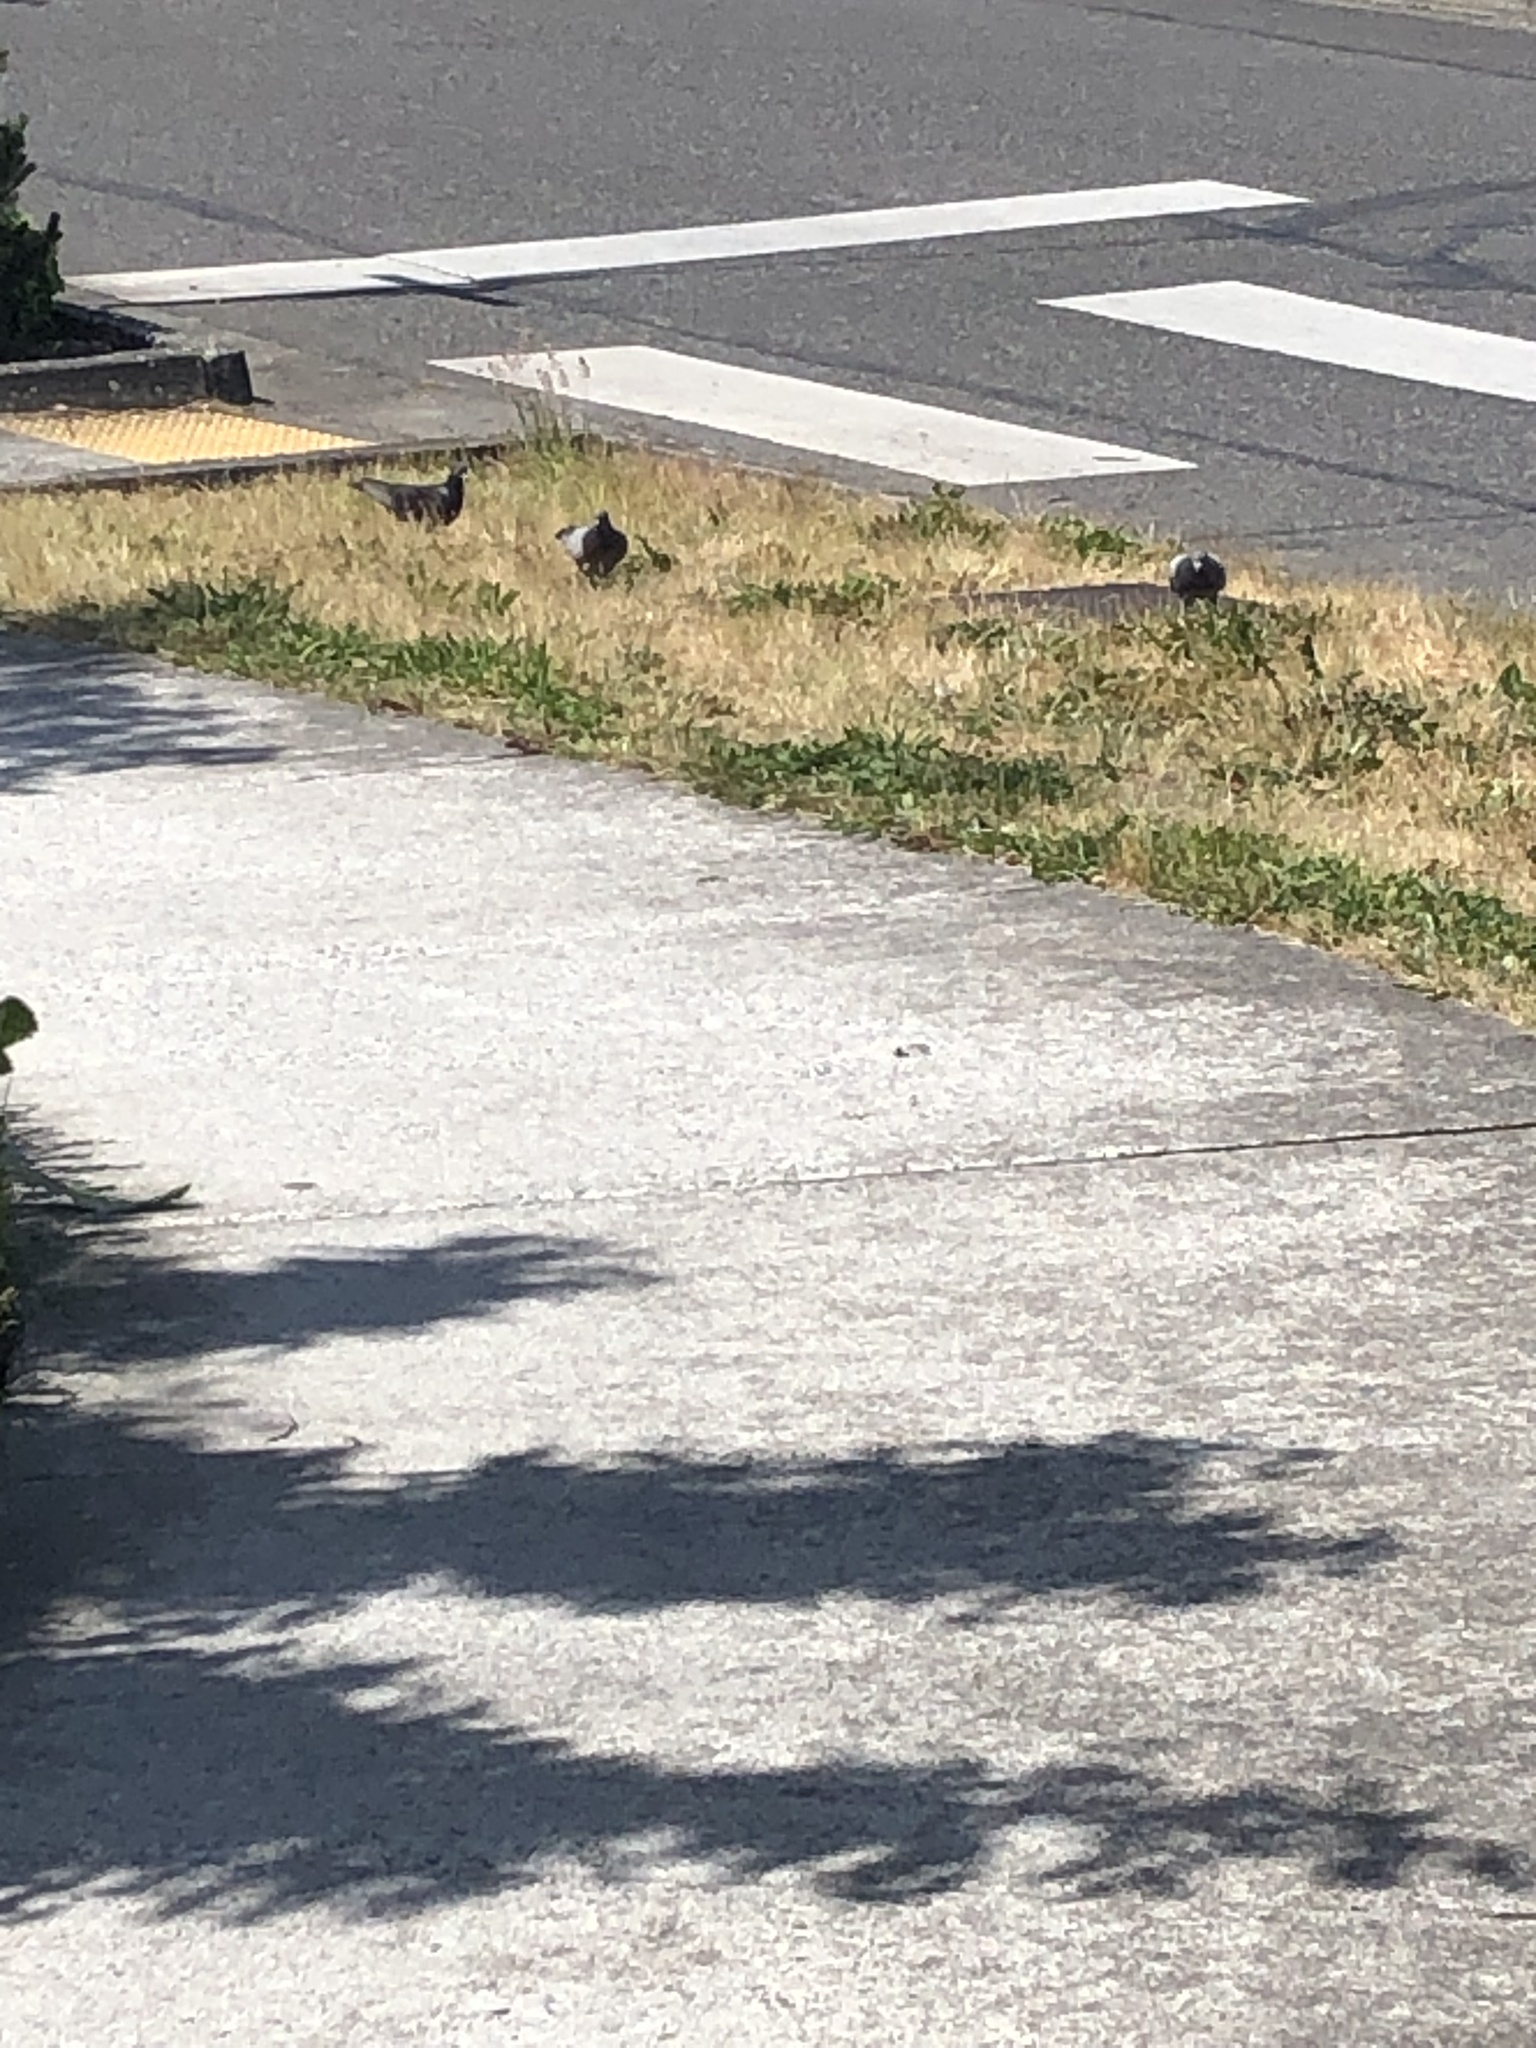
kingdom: Animalia
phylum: Chordata
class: Aves
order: Columbiformes
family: Columbidae
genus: Columba
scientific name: Columba livia
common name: Rock pigeon
